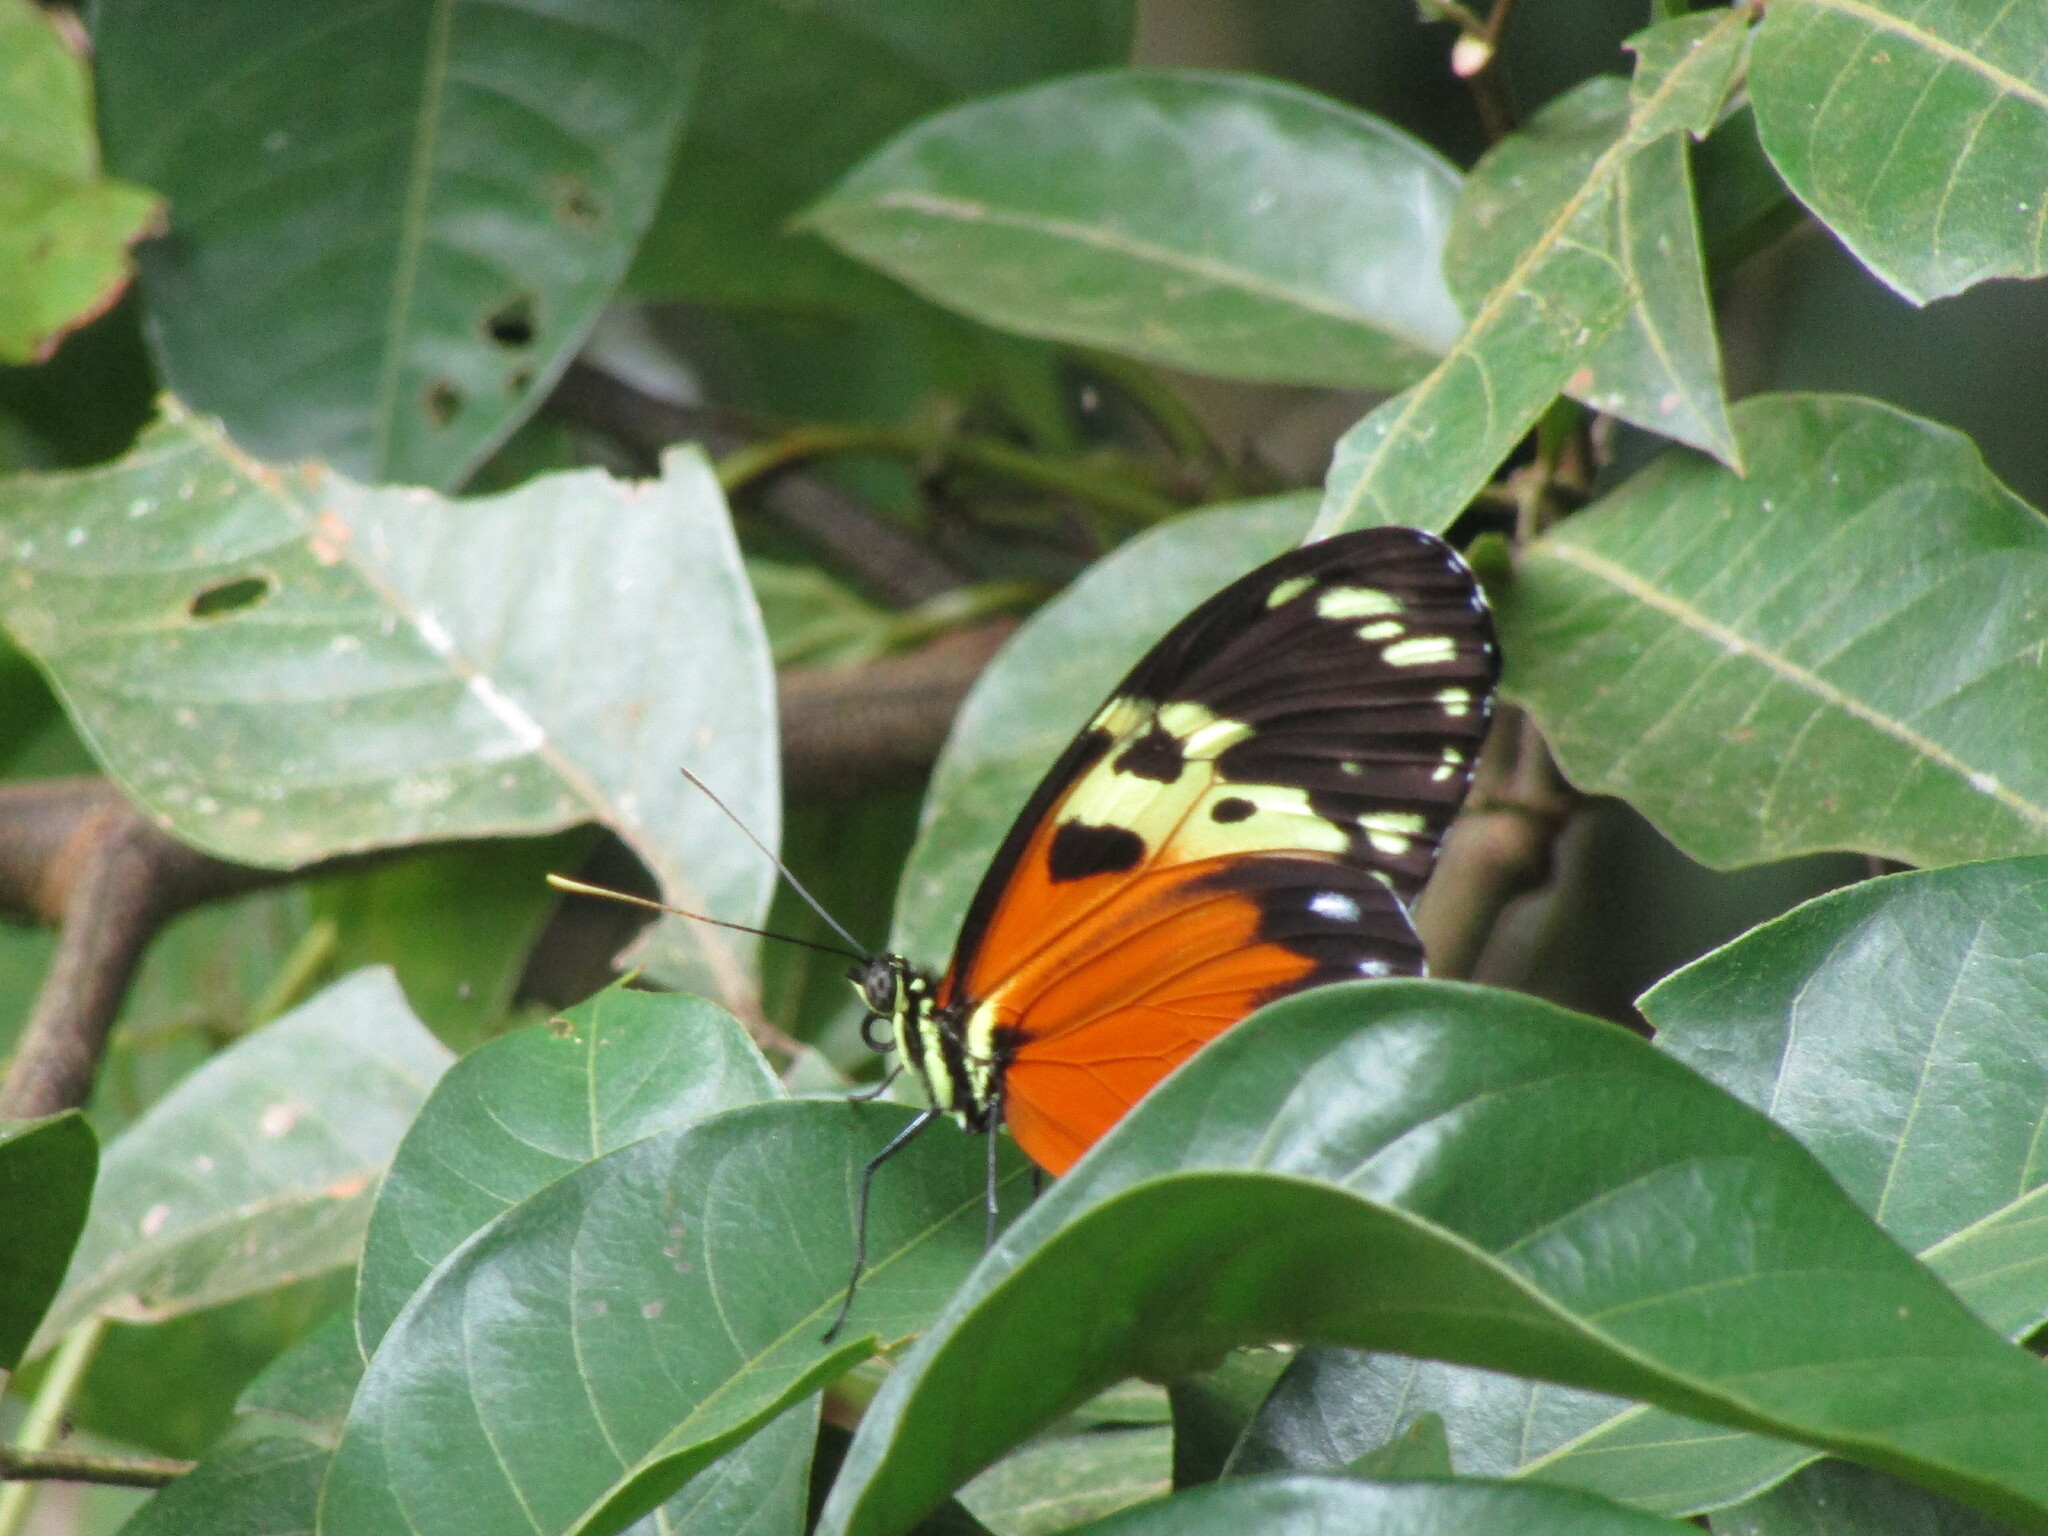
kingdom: Animalia
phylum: Arthropoda
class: Insecta
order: Lepidoptera
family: Nymphalidae
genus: Heliconius
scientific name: Heliconius hecale
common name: Tiger longwing
